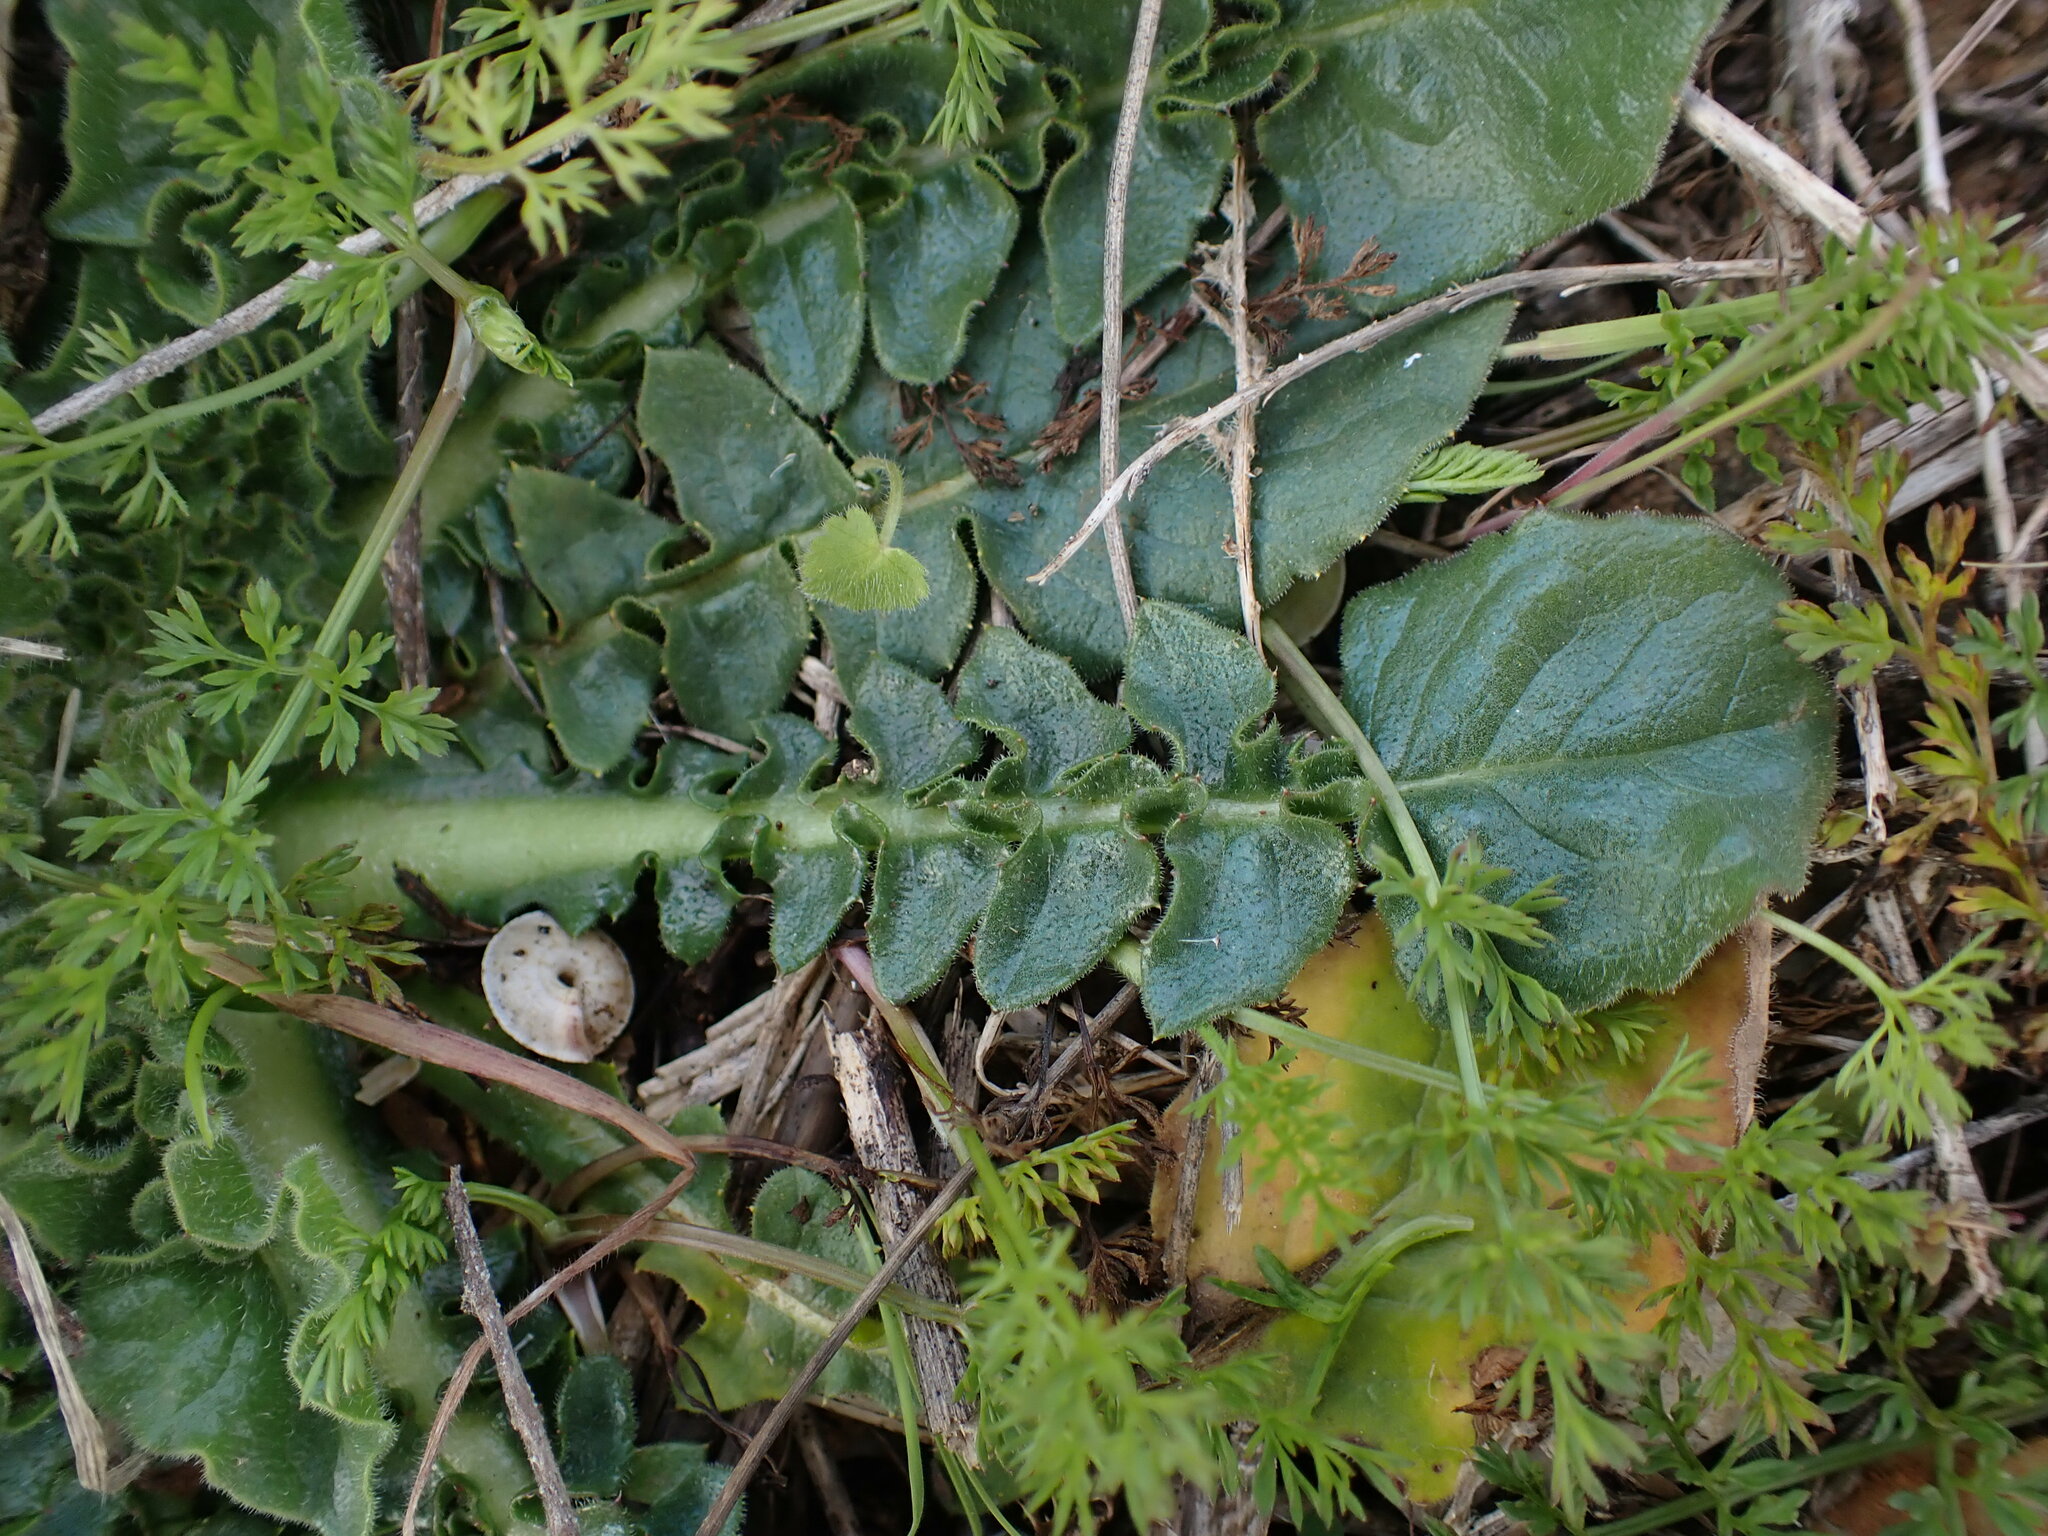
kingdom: Plantae
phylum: Tracheophyta
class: Magnoliopsida
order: Asterales
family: Asteraceae
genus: Urospermum
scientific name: Urospermum dalechampii
